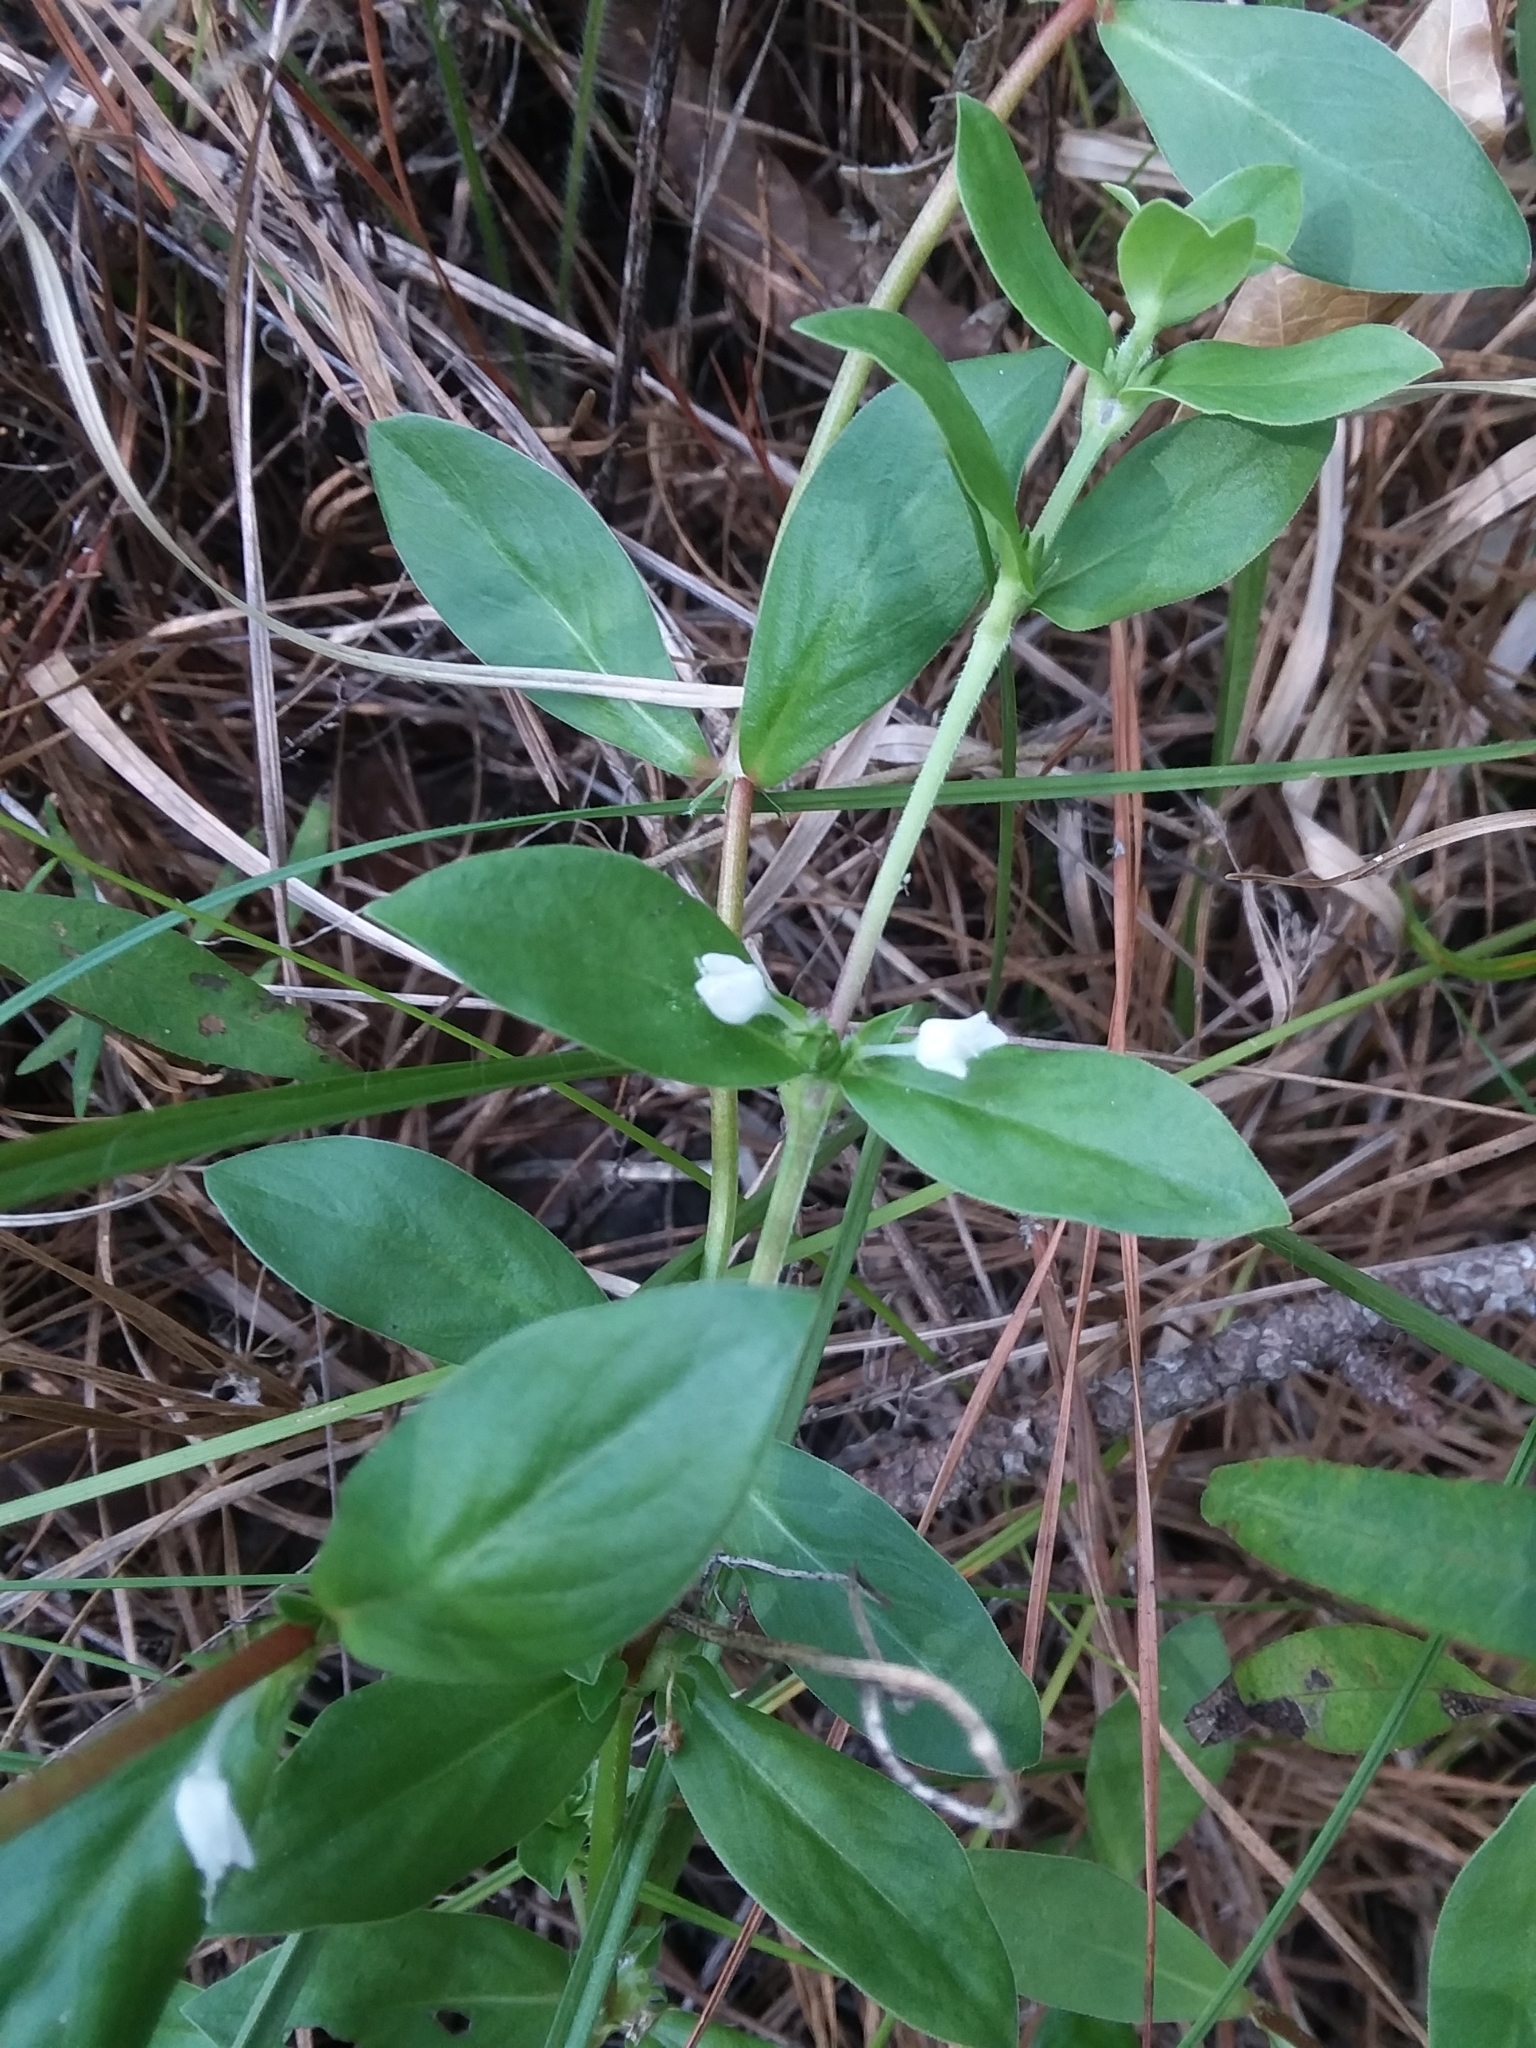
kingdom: Plantae
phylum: Tracheophyta
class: Magnoliopsida
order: Gentianales
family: Rubiaceae
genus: Diodia
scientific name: Diodia virginiana
